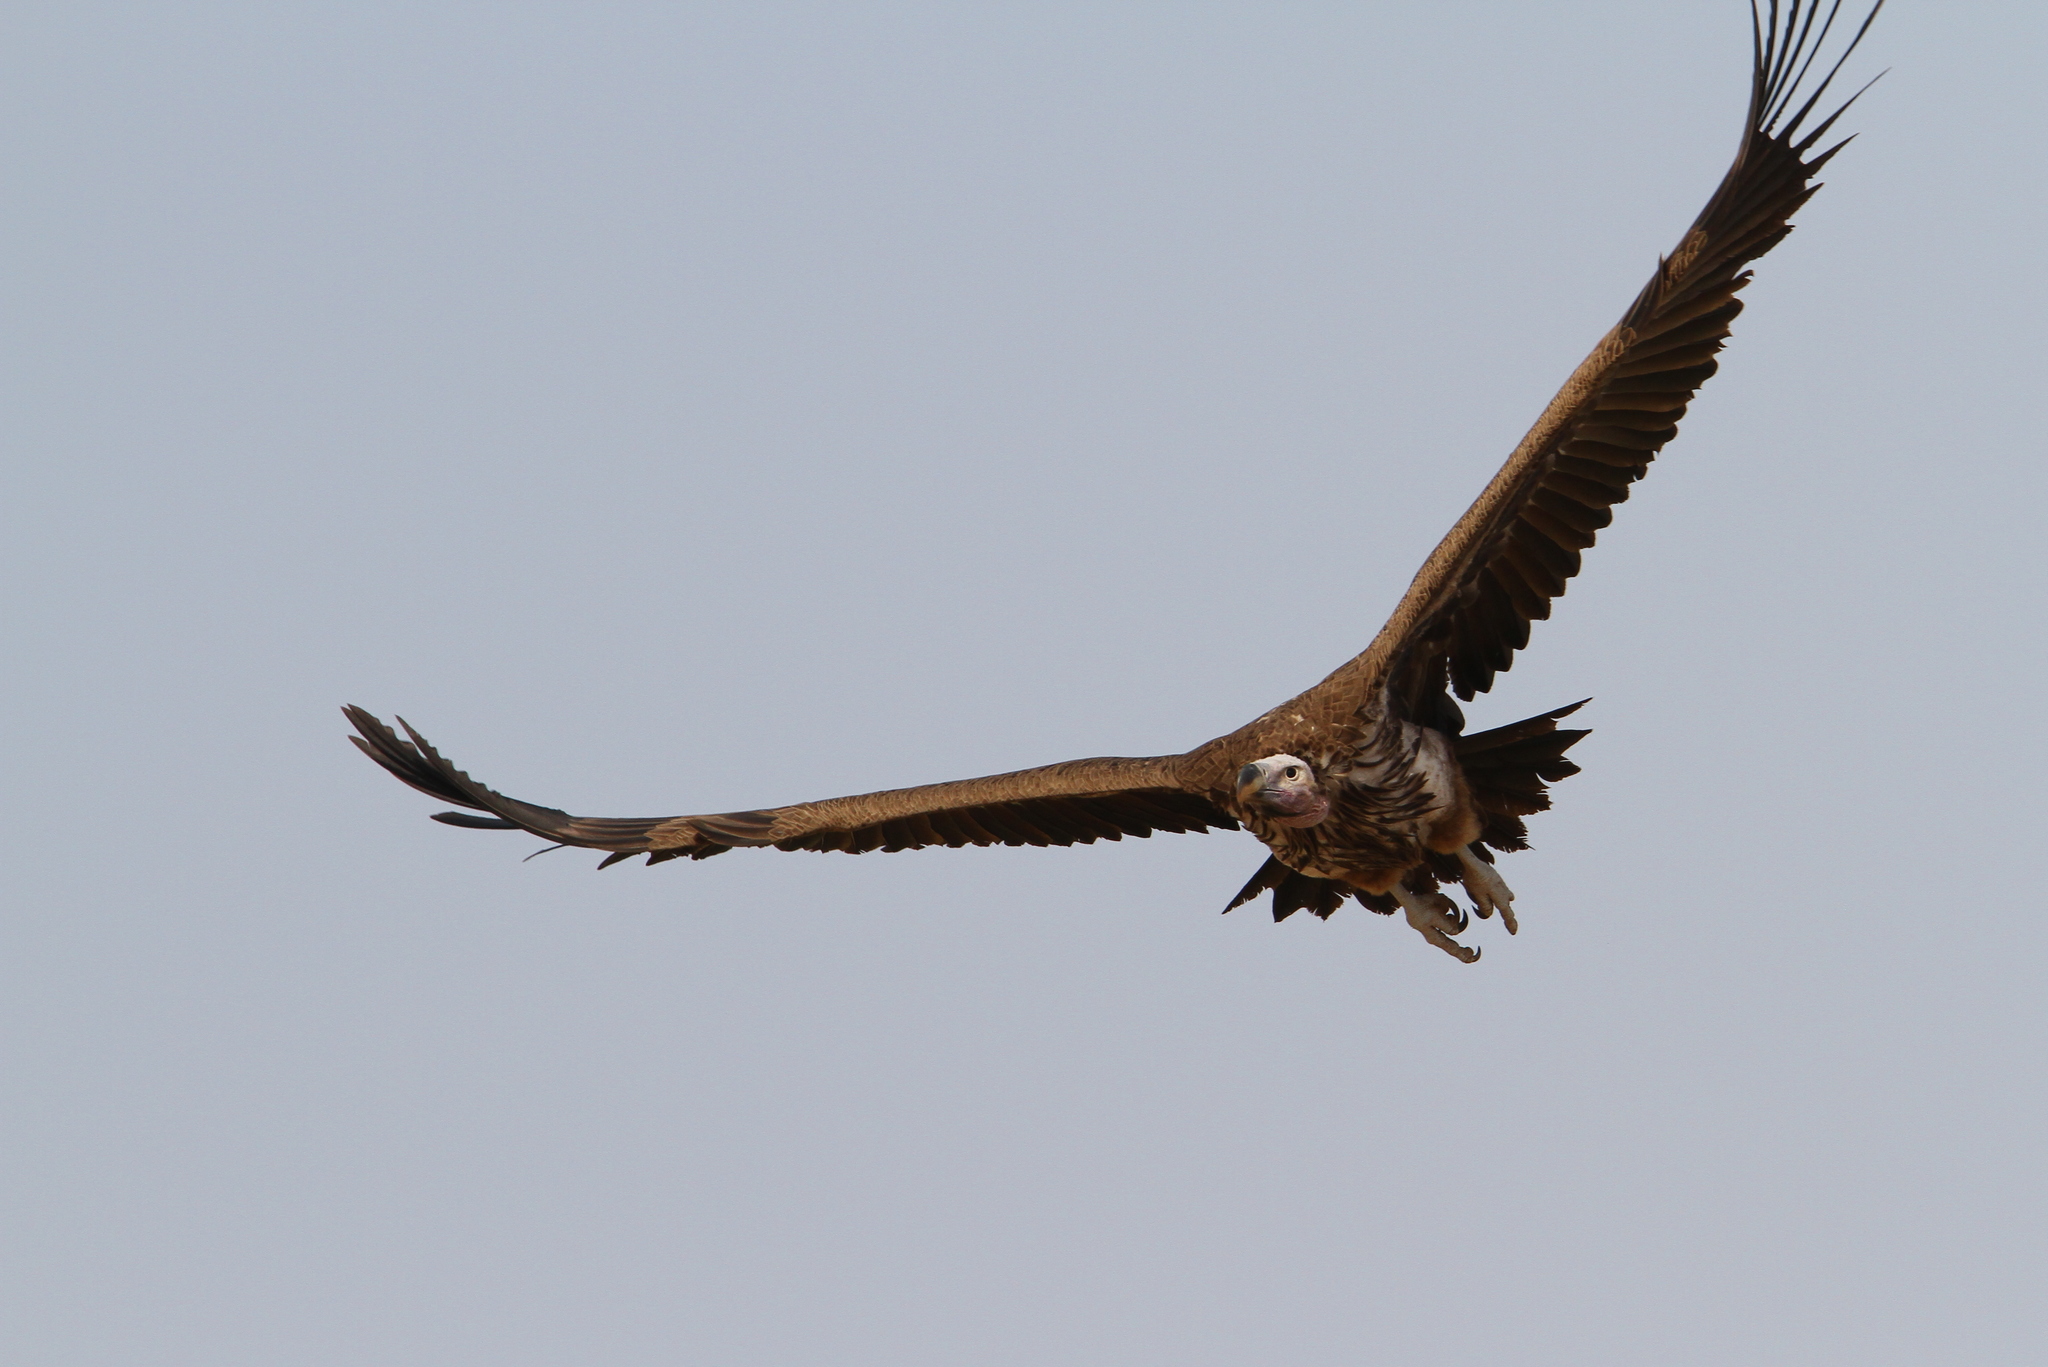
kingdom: Animalia
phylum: Chordata
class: Aves
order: Accipitriformes
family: Accipitridae
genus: Torgos
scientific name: Torgos tracheliotos
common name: Lappet-faced vulture
